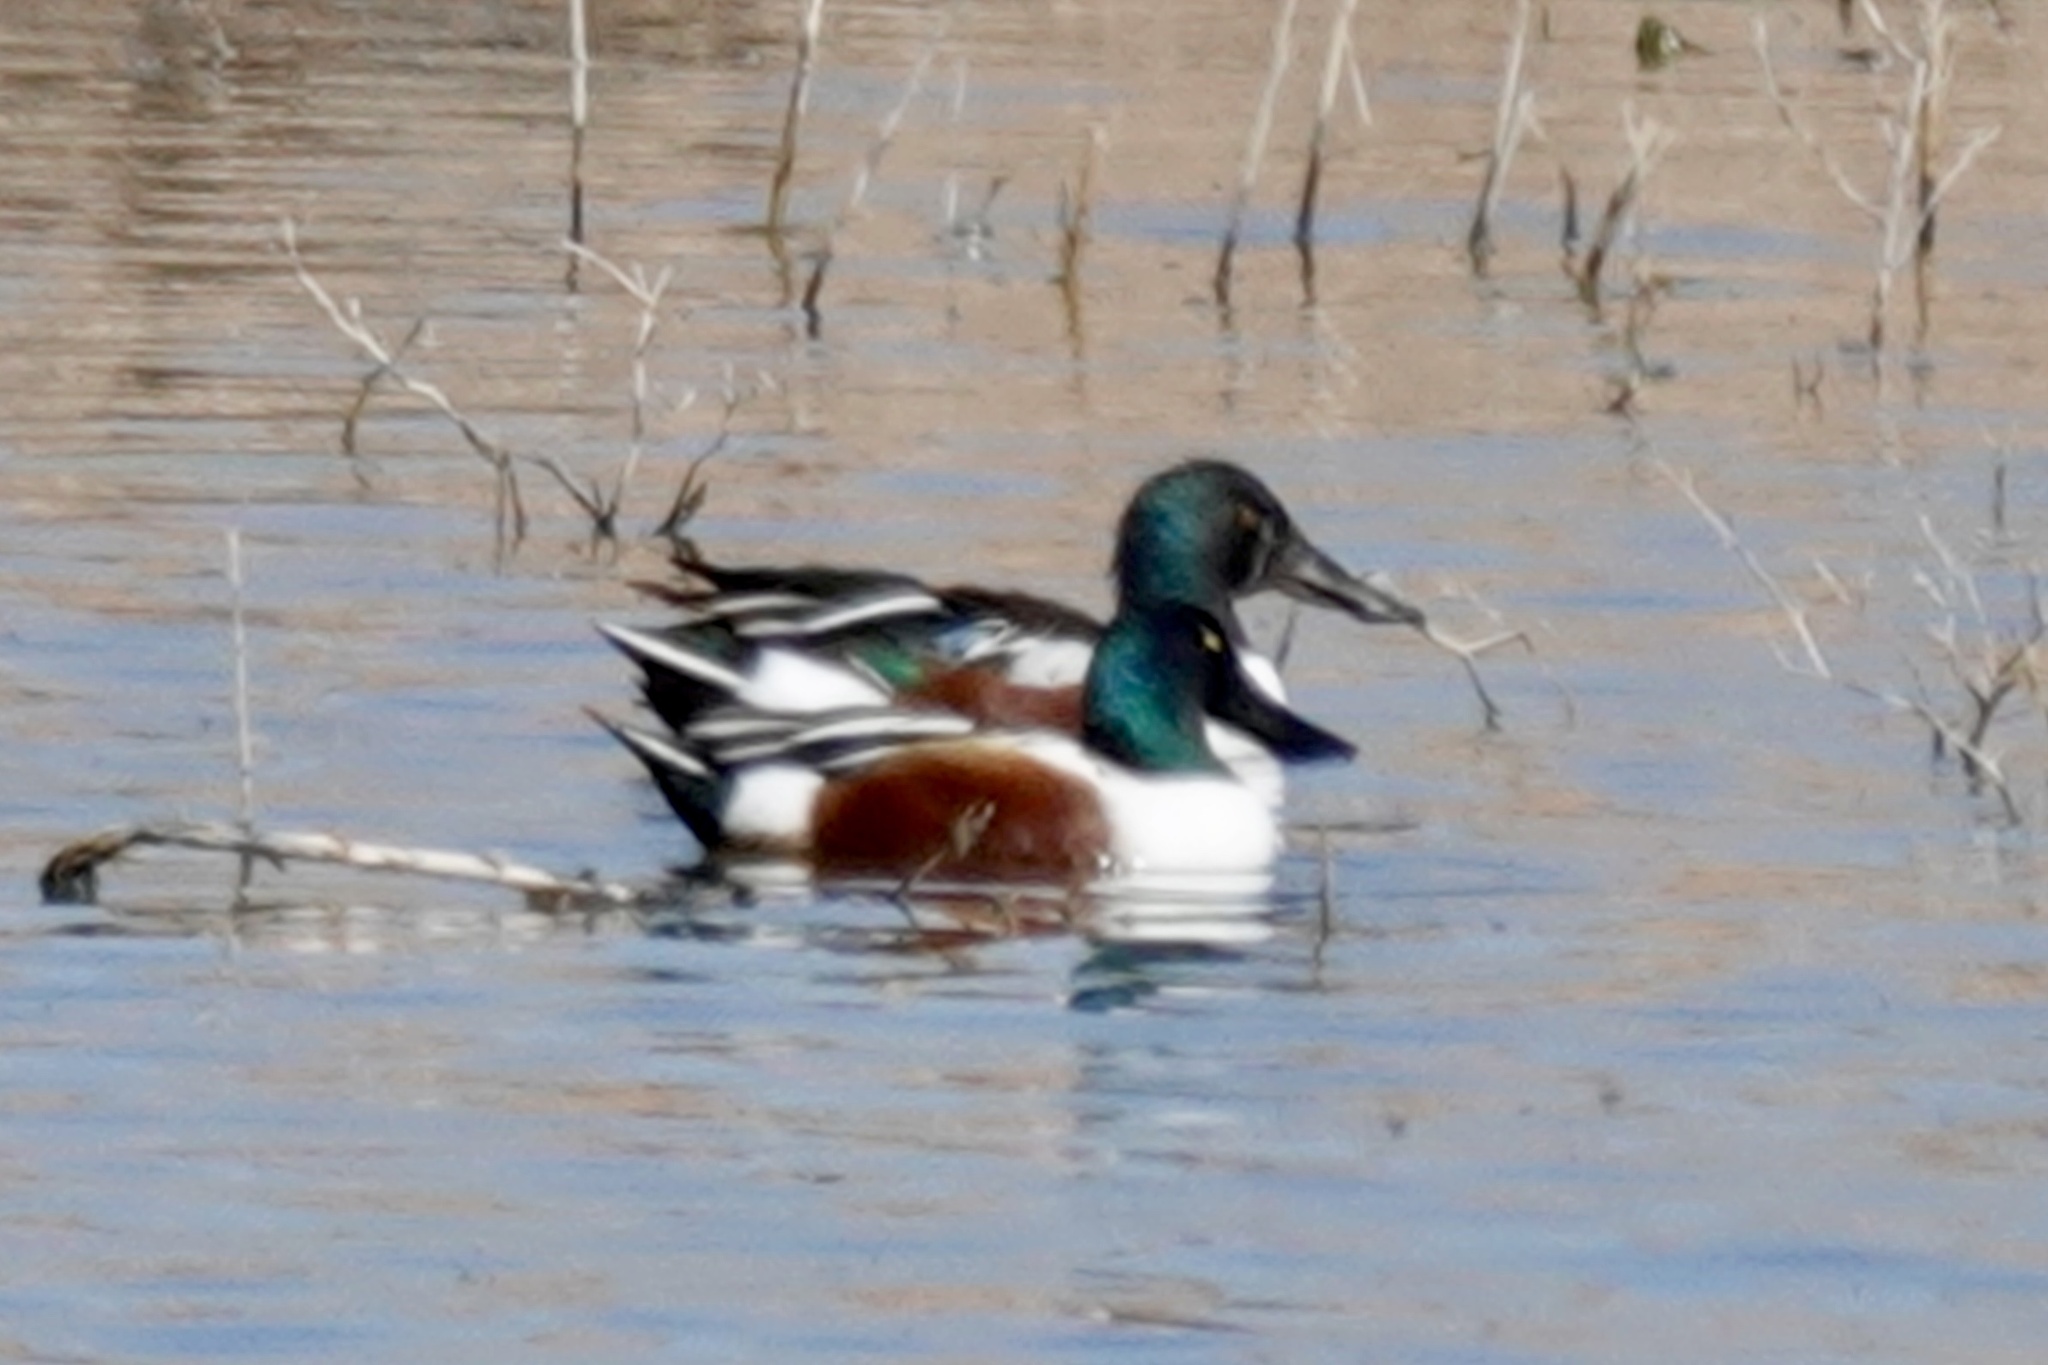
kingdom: Animalia
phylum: Chordata
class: Aves
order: Anseriformes
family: Anatidae
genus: Spatula
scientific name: Spatula clypeata
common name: Northern shoveler
